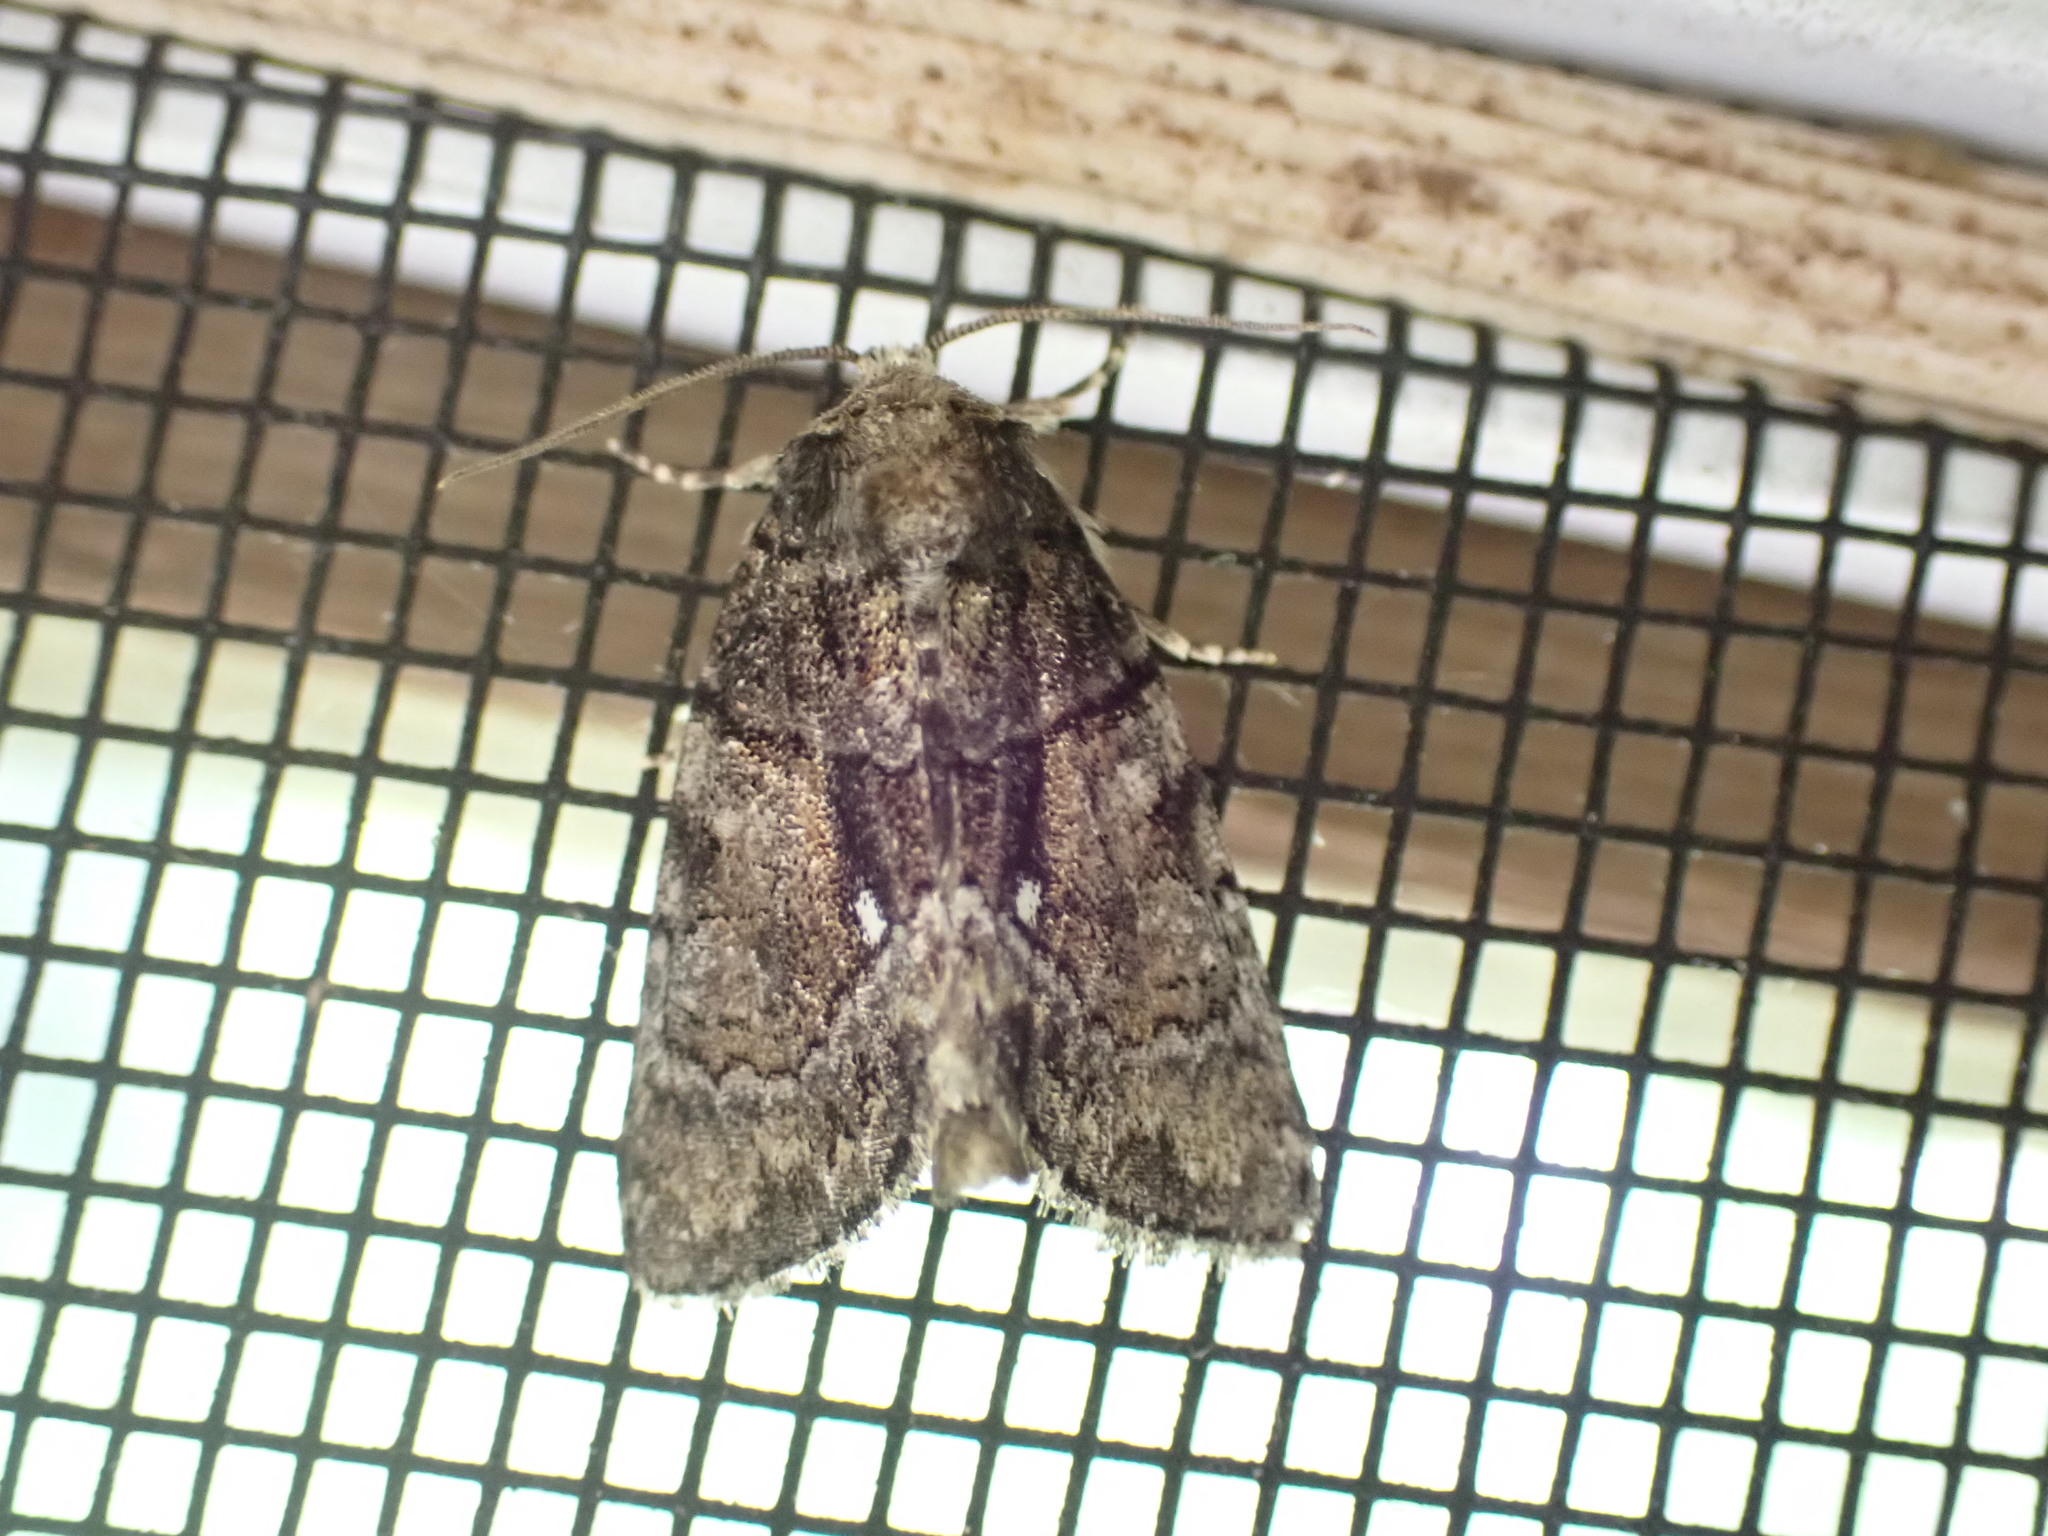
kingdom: Animalia
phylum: Arthropoda
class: Insecta
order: Lepidoptera
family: Noctuidae
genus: Chytonix
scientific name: Chytonix palliatricula
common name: Cloaked marvel
